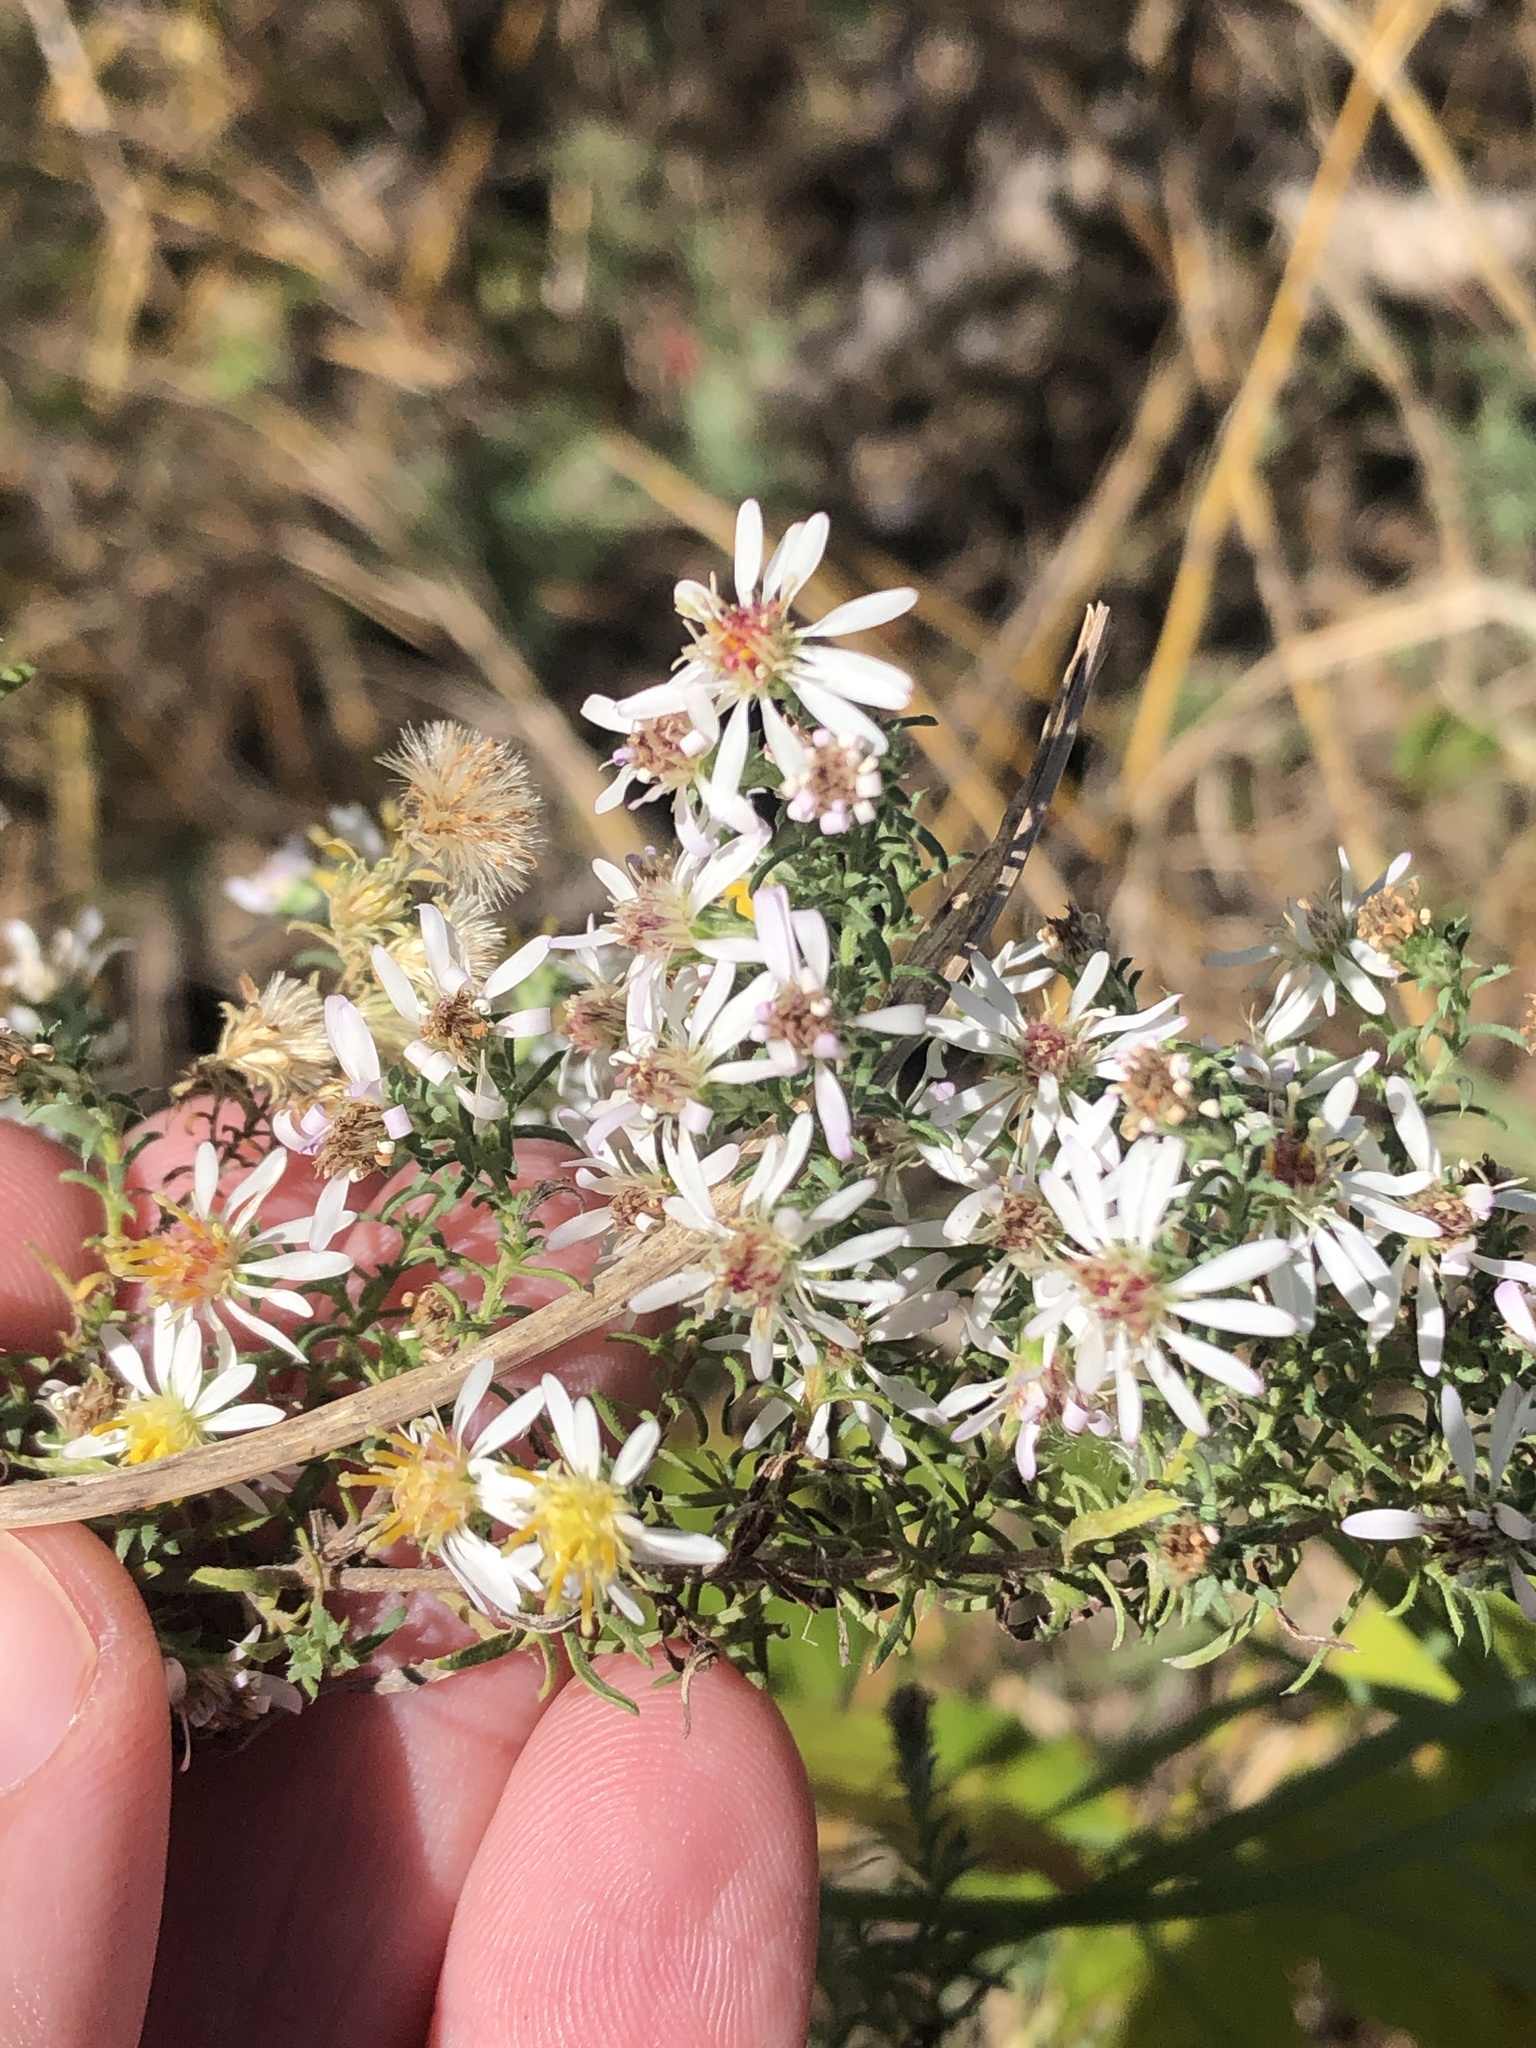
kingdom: Plantae
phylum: Tracheophyta
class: Magnoliopsida
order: Asterales
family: Asteraceae
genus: Symphyotrichum
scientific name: Symphyotrichum ericoides
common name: Heath aster
